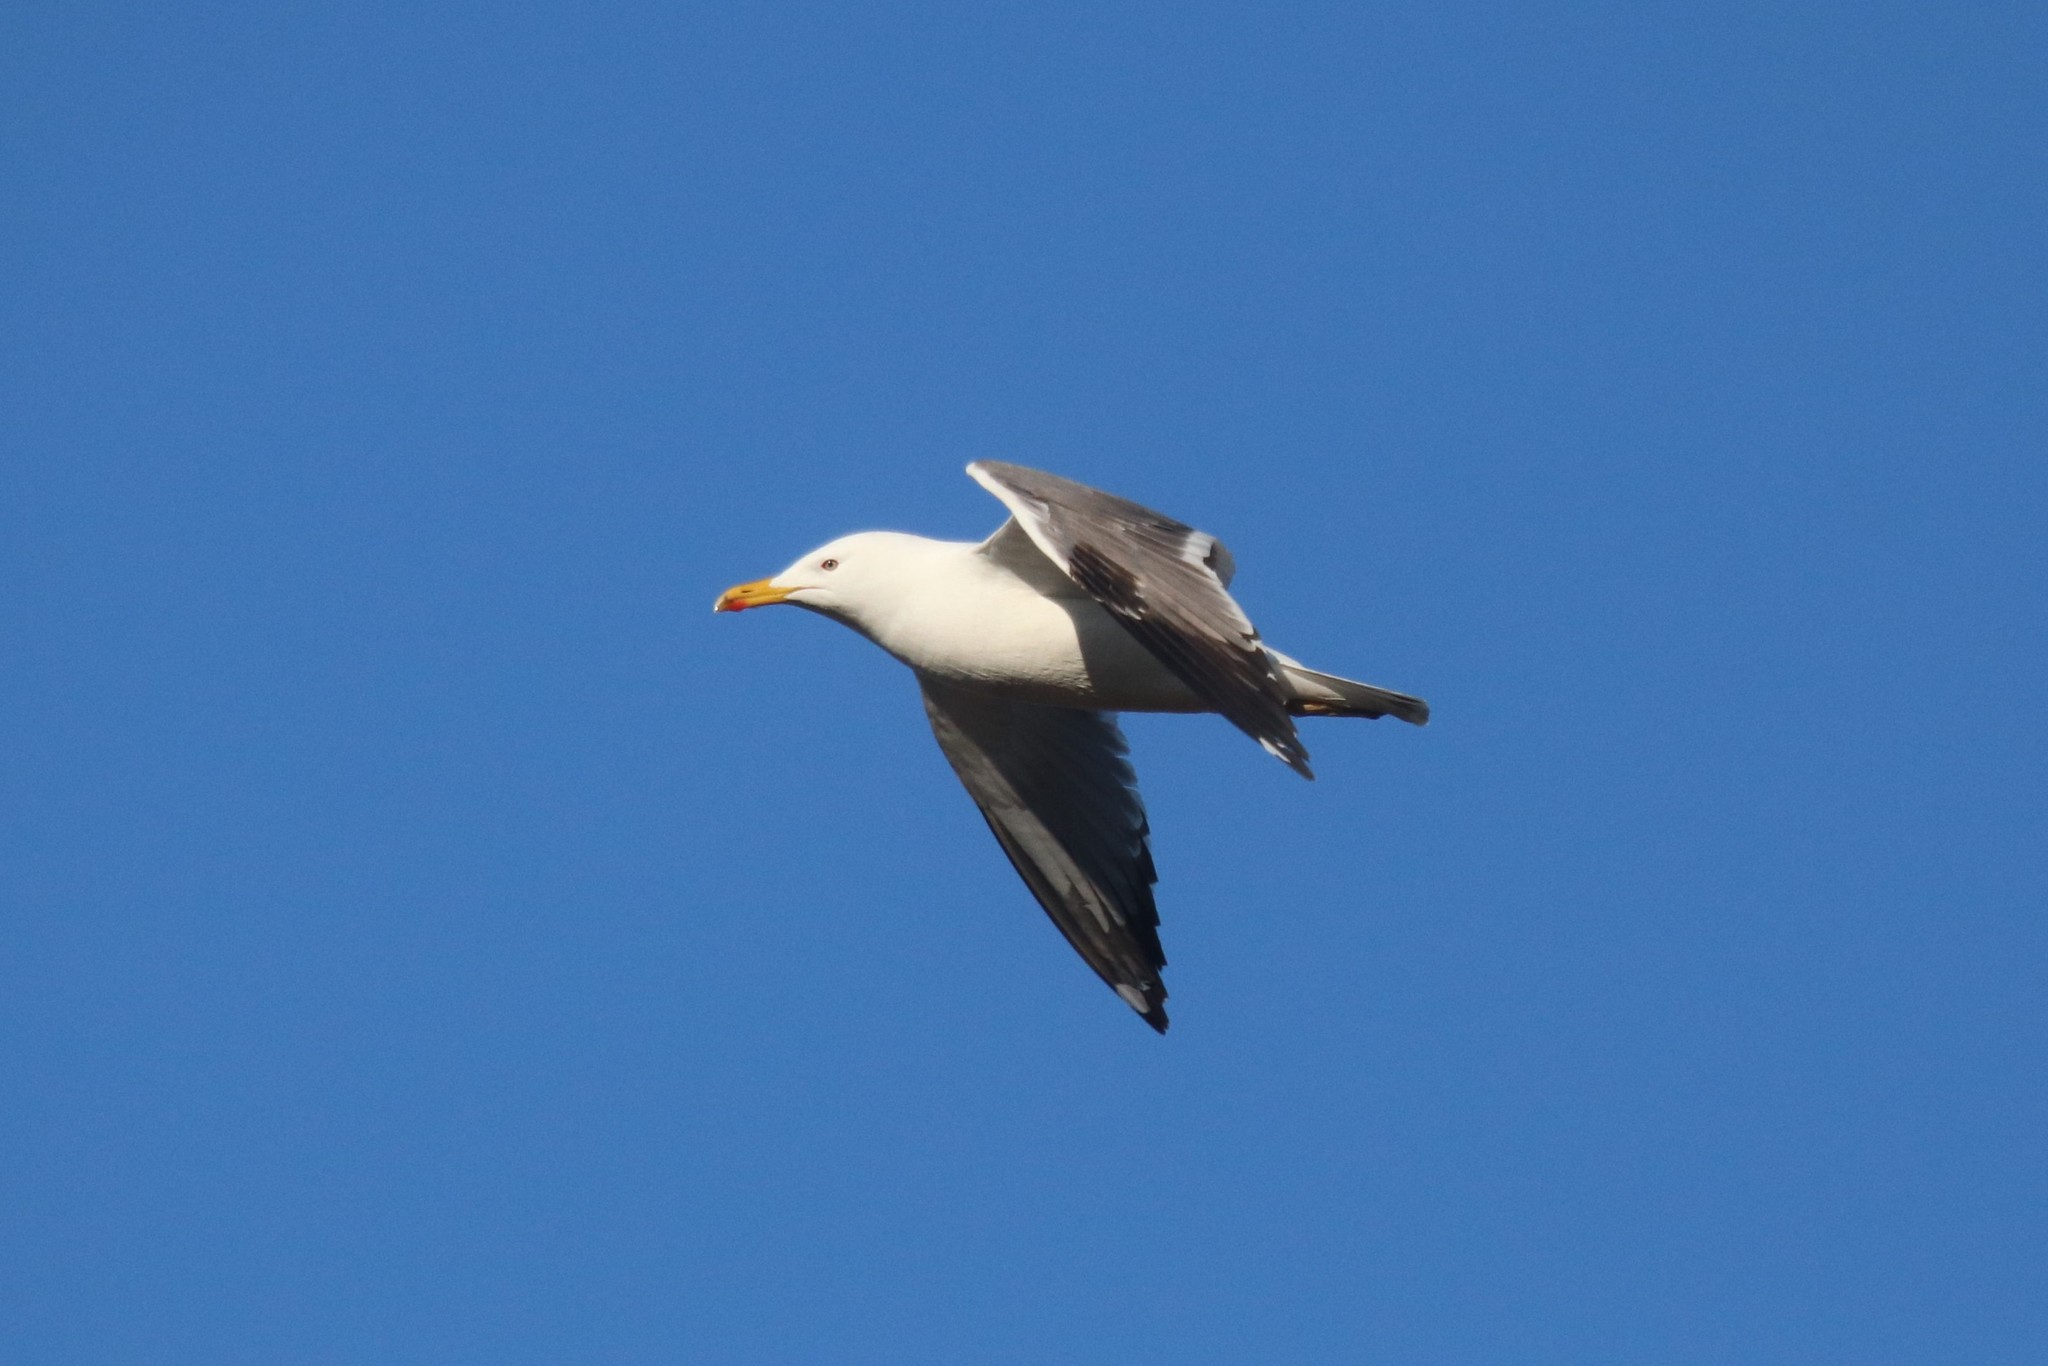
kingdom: Animalia
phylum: Chordata
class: Aves
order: Charadriiformes
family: Laridae
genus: Larus
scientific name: Larus fuscus
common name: Lesser black-backed gull
